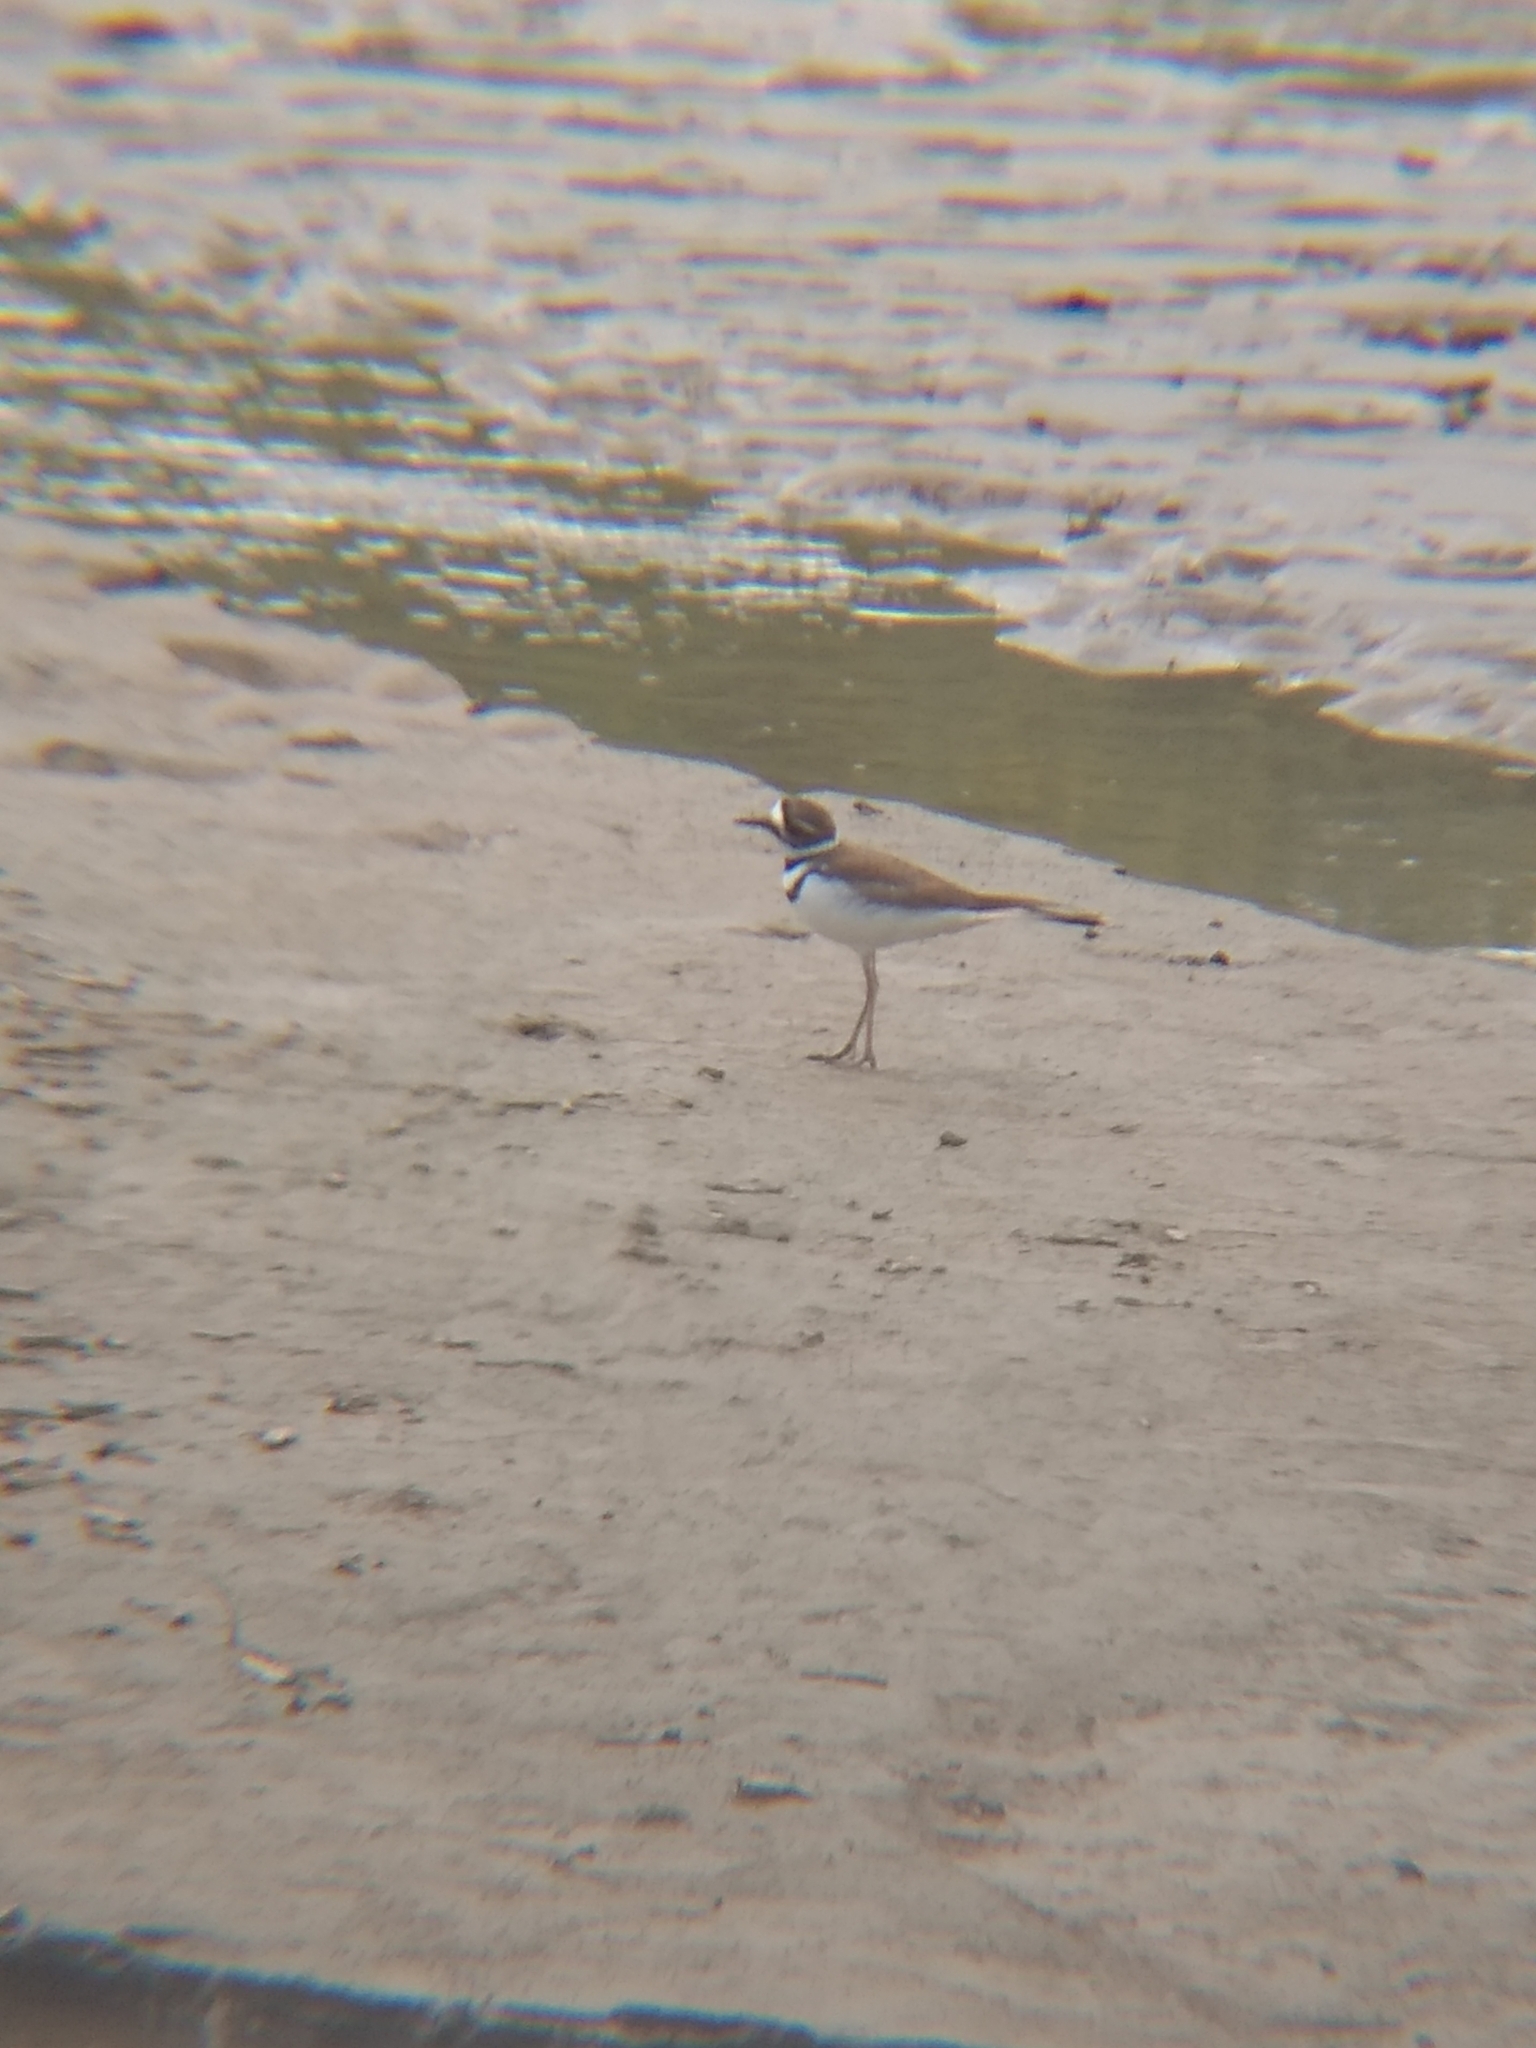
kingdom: Animalia
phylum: Chordata
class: Aves
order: Charadriiformes
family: Charadriidae
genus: Charadrius
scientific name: Charadrius vociferus
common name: Killdeer
